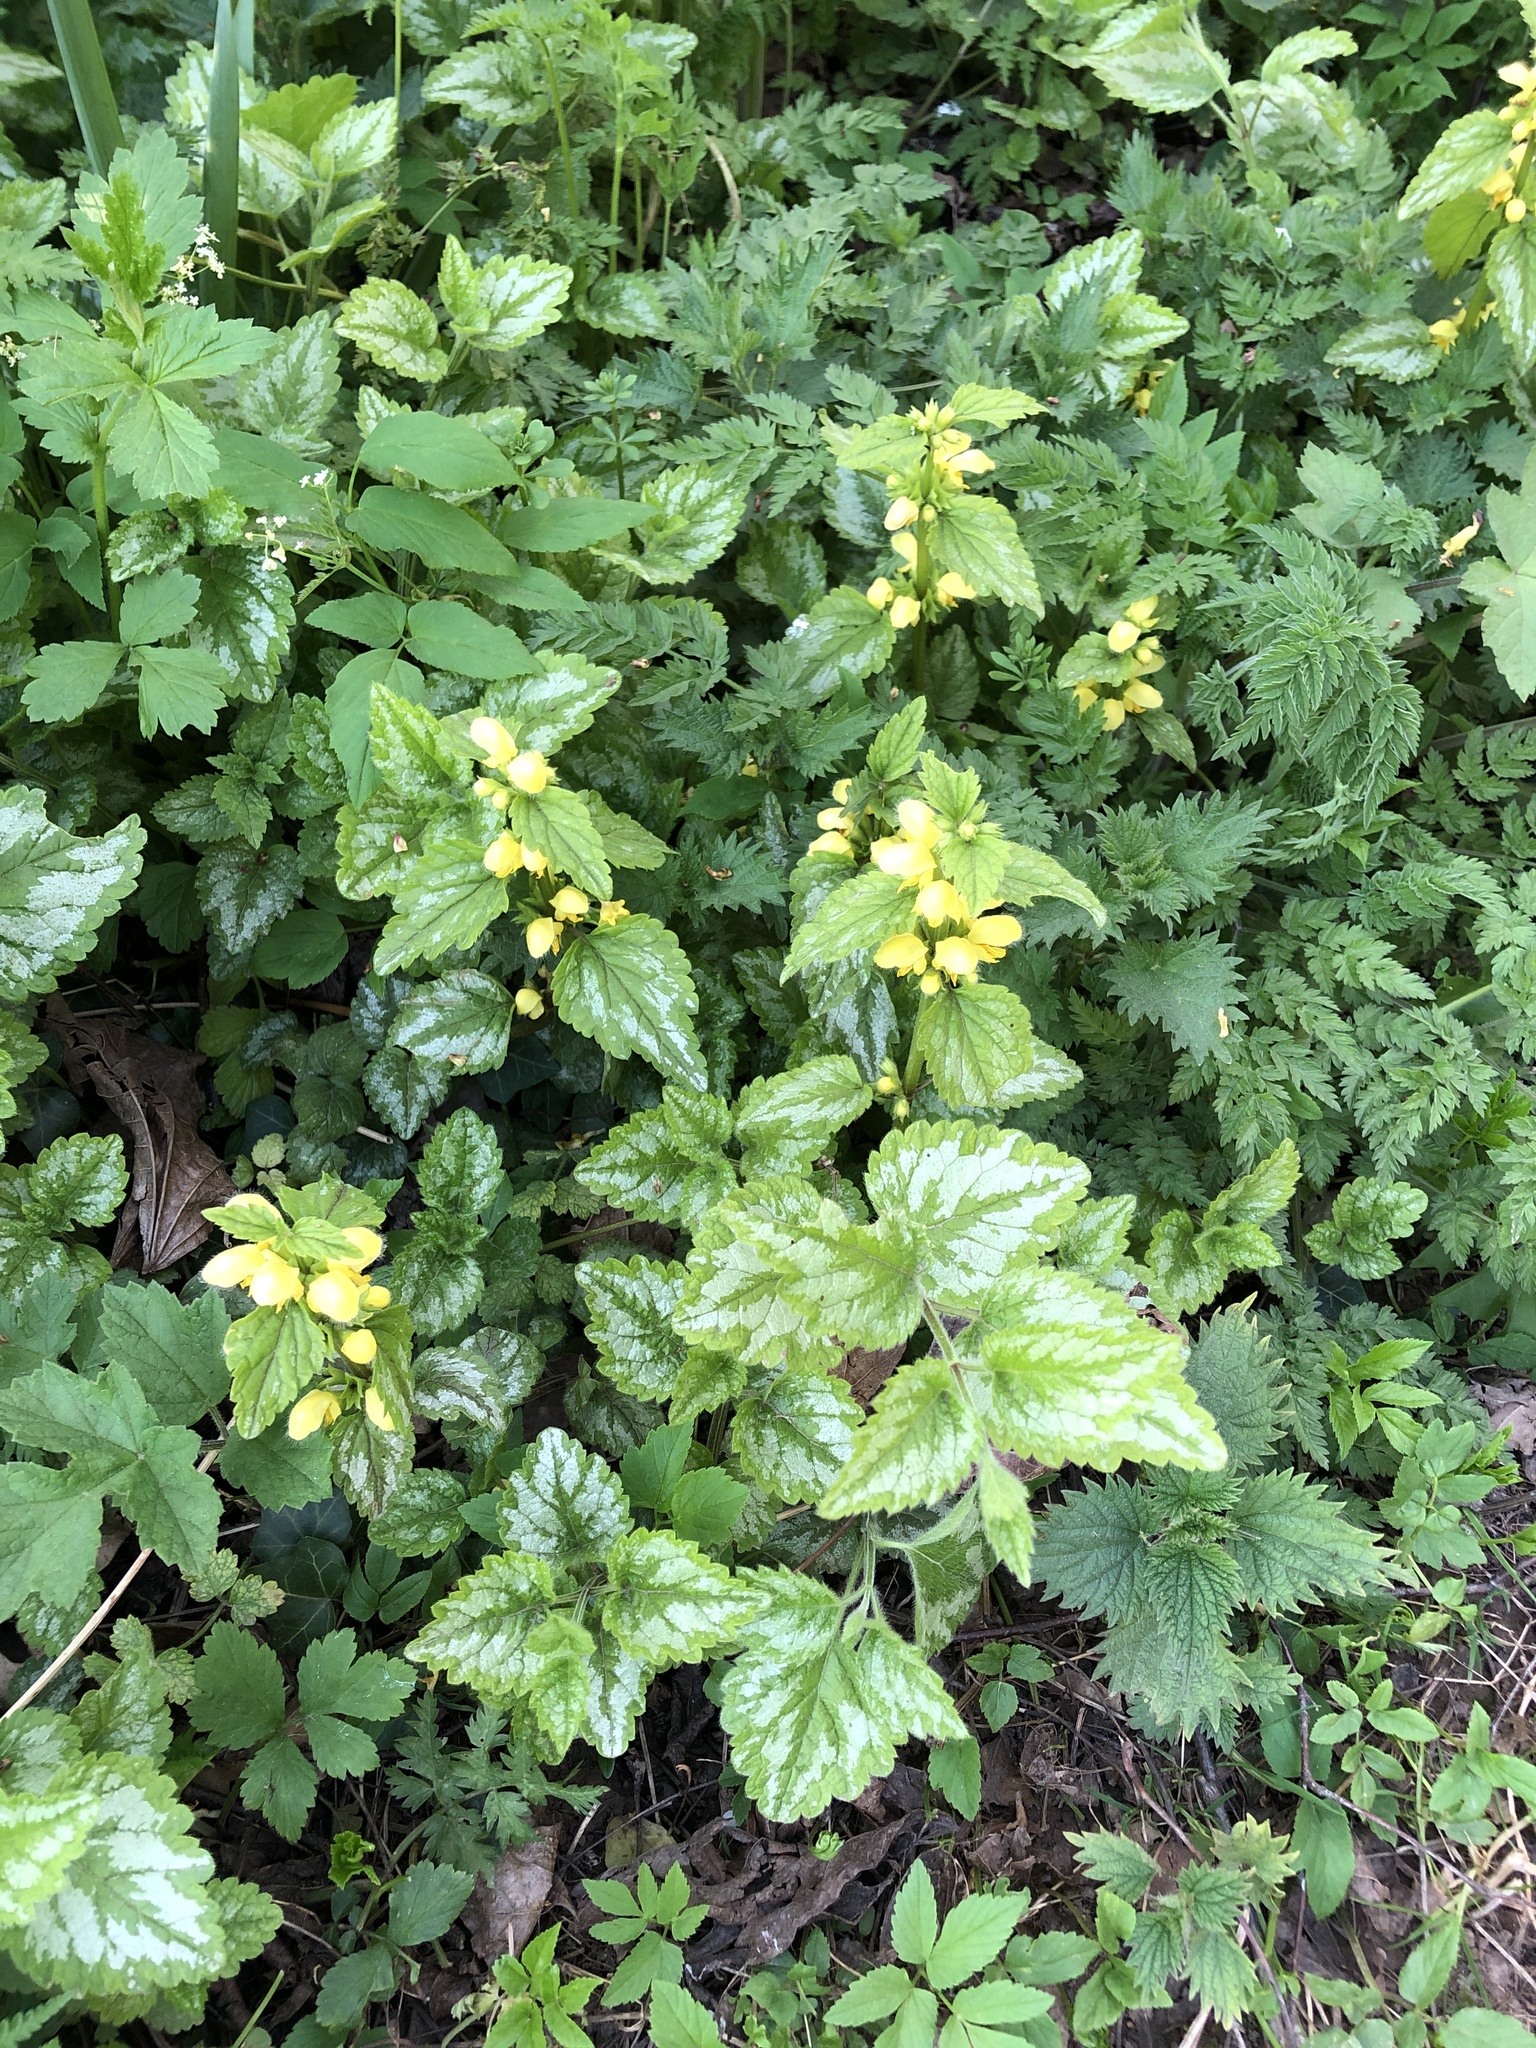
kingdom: Plantae
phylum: Tracheophyta
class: Magnoliopsida
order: Lamiales
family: Lamiaceae
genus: Lamium
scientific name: Lamium galeobdolon
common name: Yellow archangel
